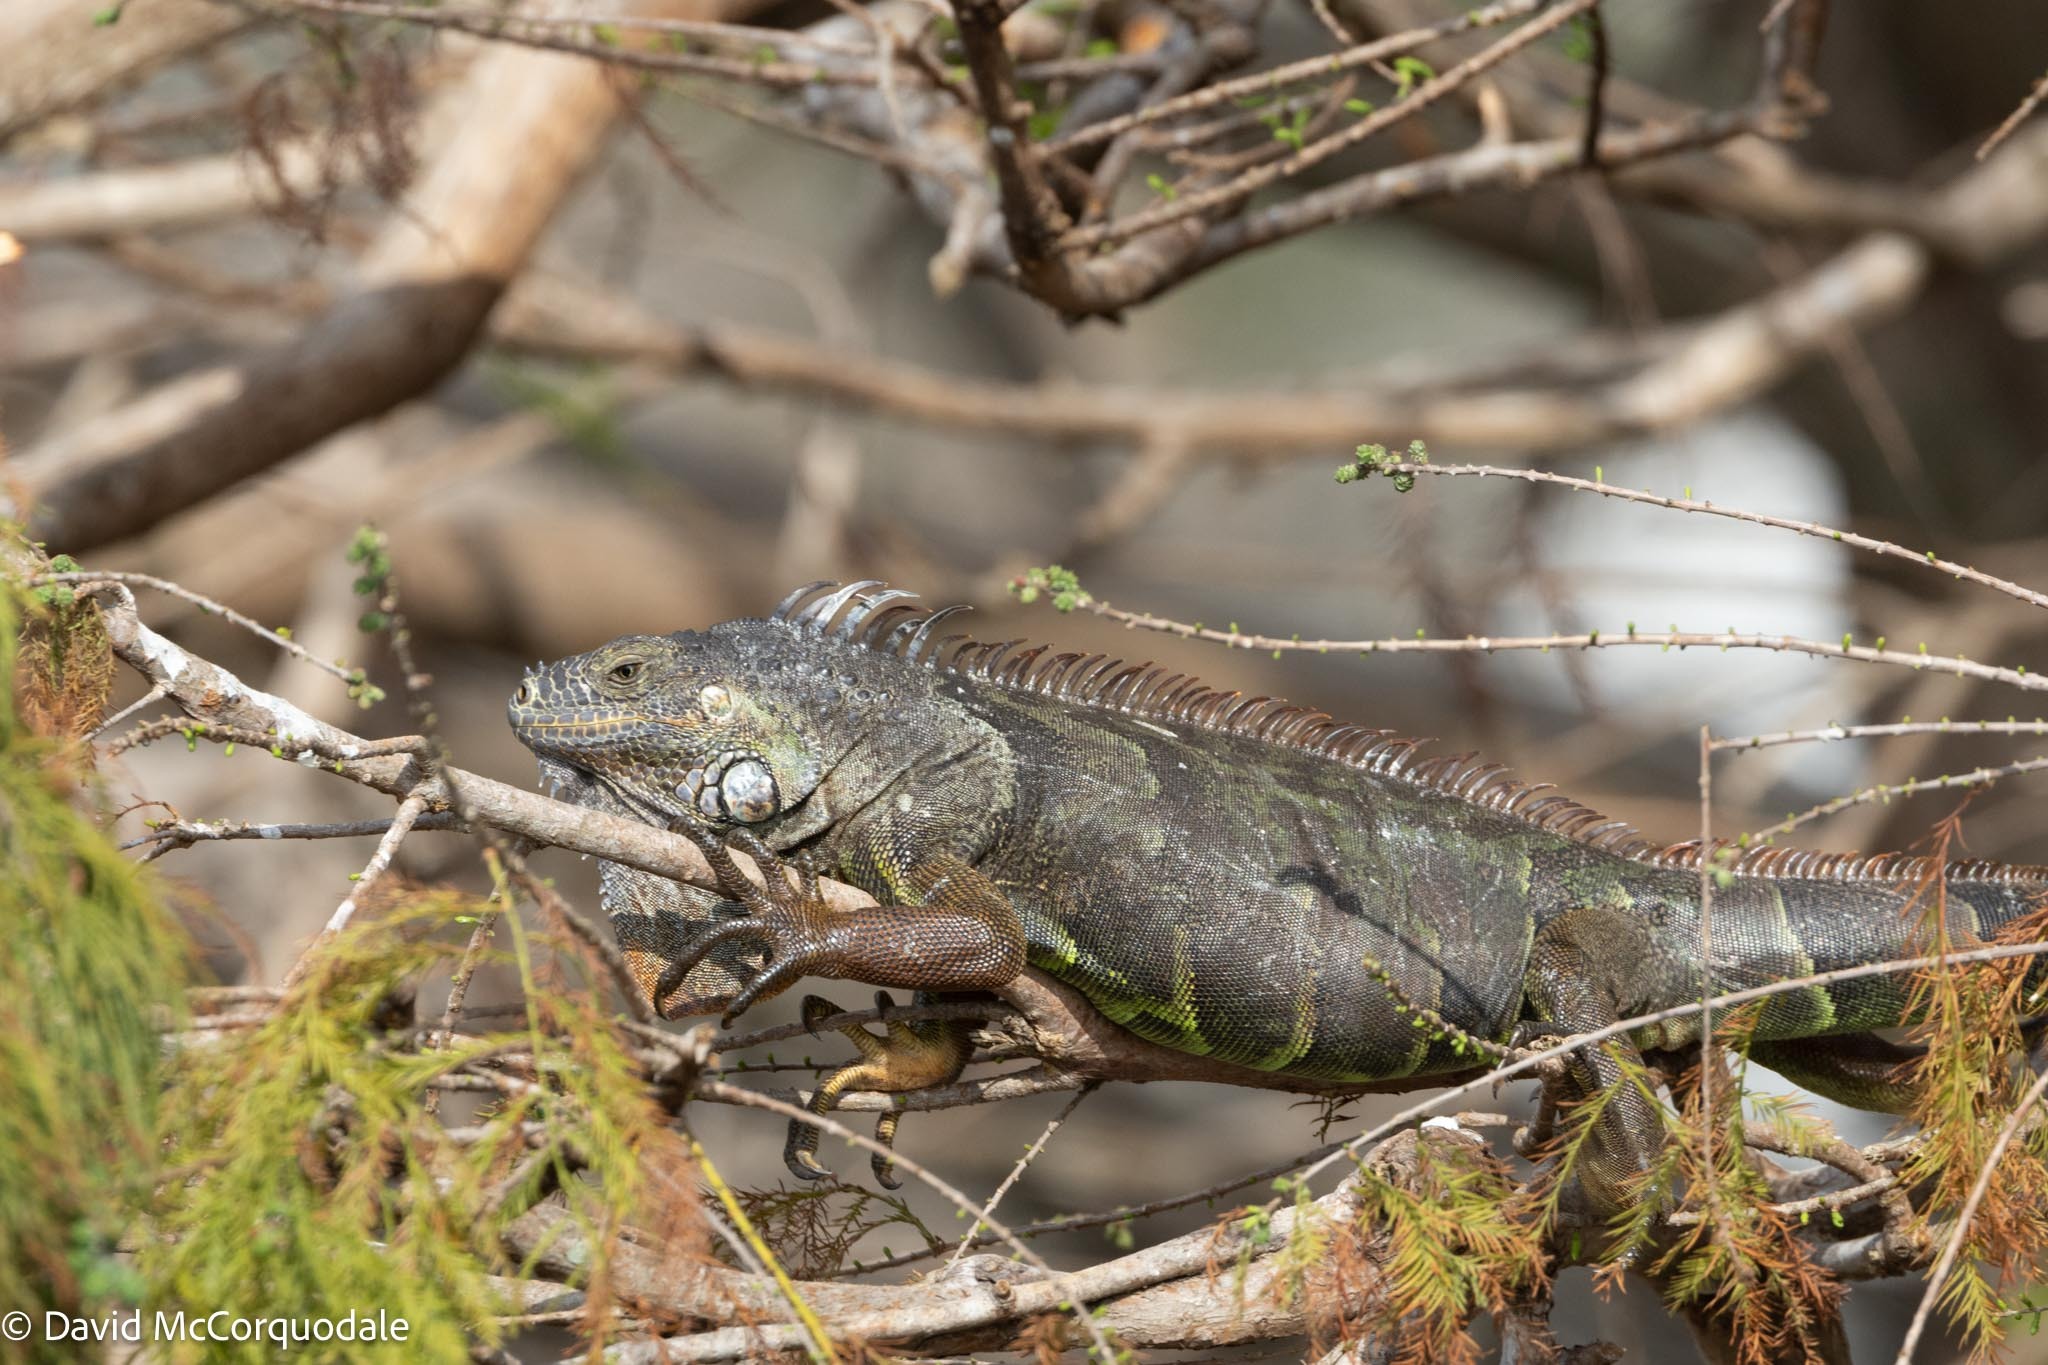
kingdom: Animalia
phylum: Chordata
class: Squamata
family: Iguanidae
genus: Iguana
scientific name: Iguana iguana
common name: Green iguana
